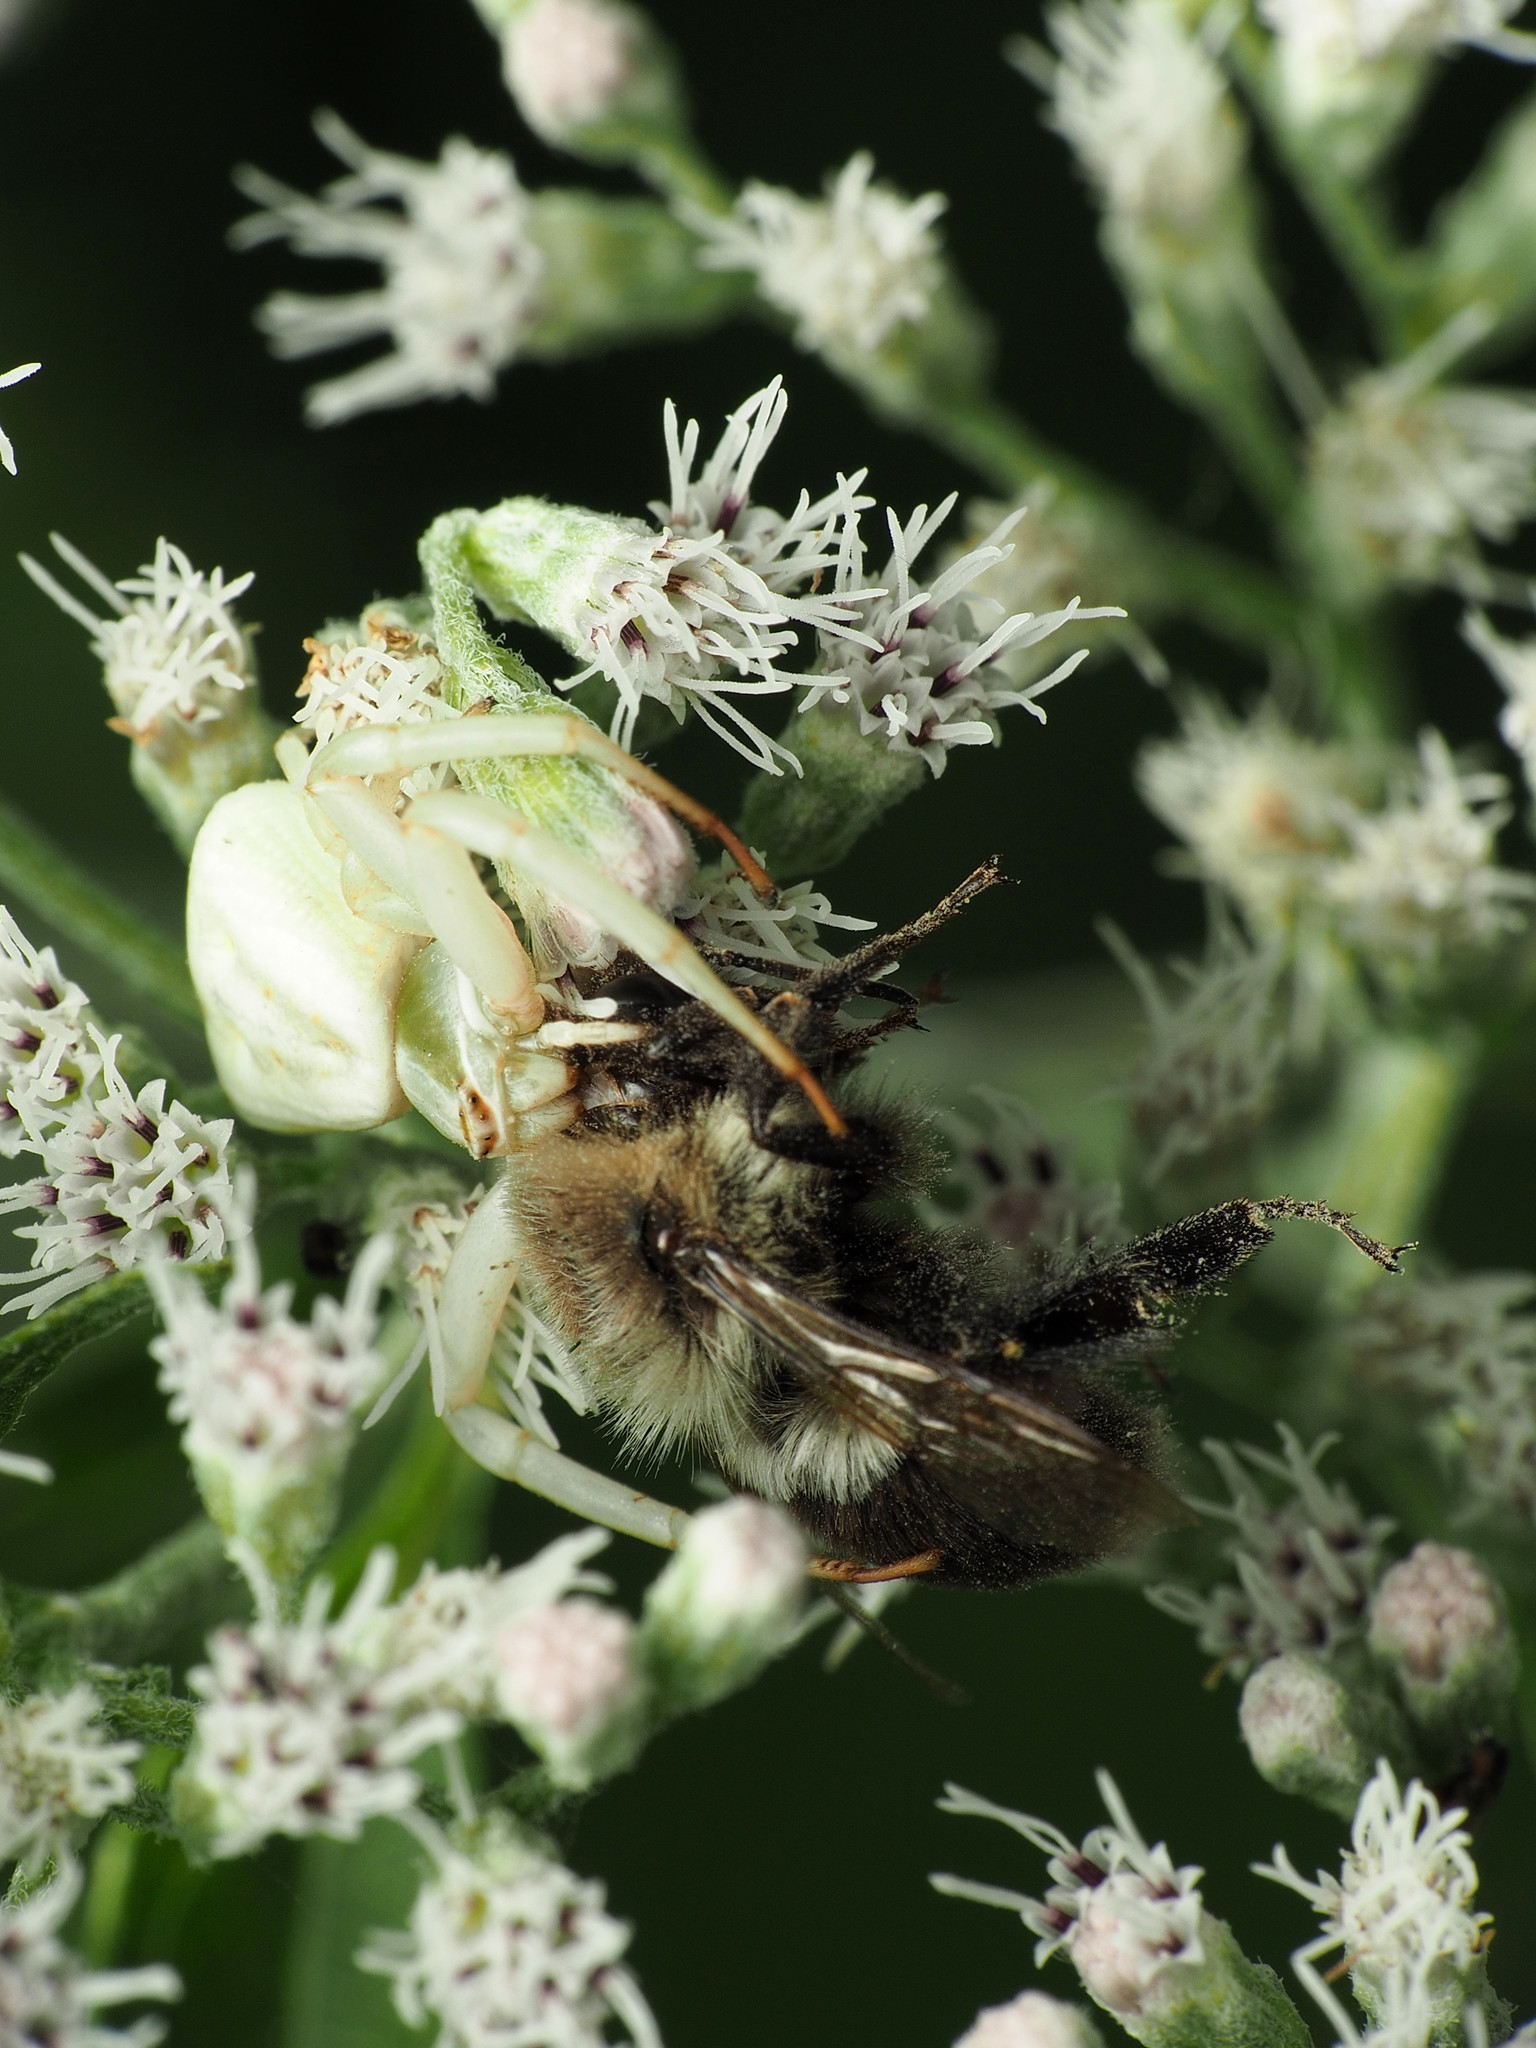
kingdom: Animalia
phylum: Arthropoda
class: Arachnida
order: Araneae
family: Thomisidae
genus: Misumenoides
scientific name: Misumenoides formosipes
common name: White-banded crab spider
